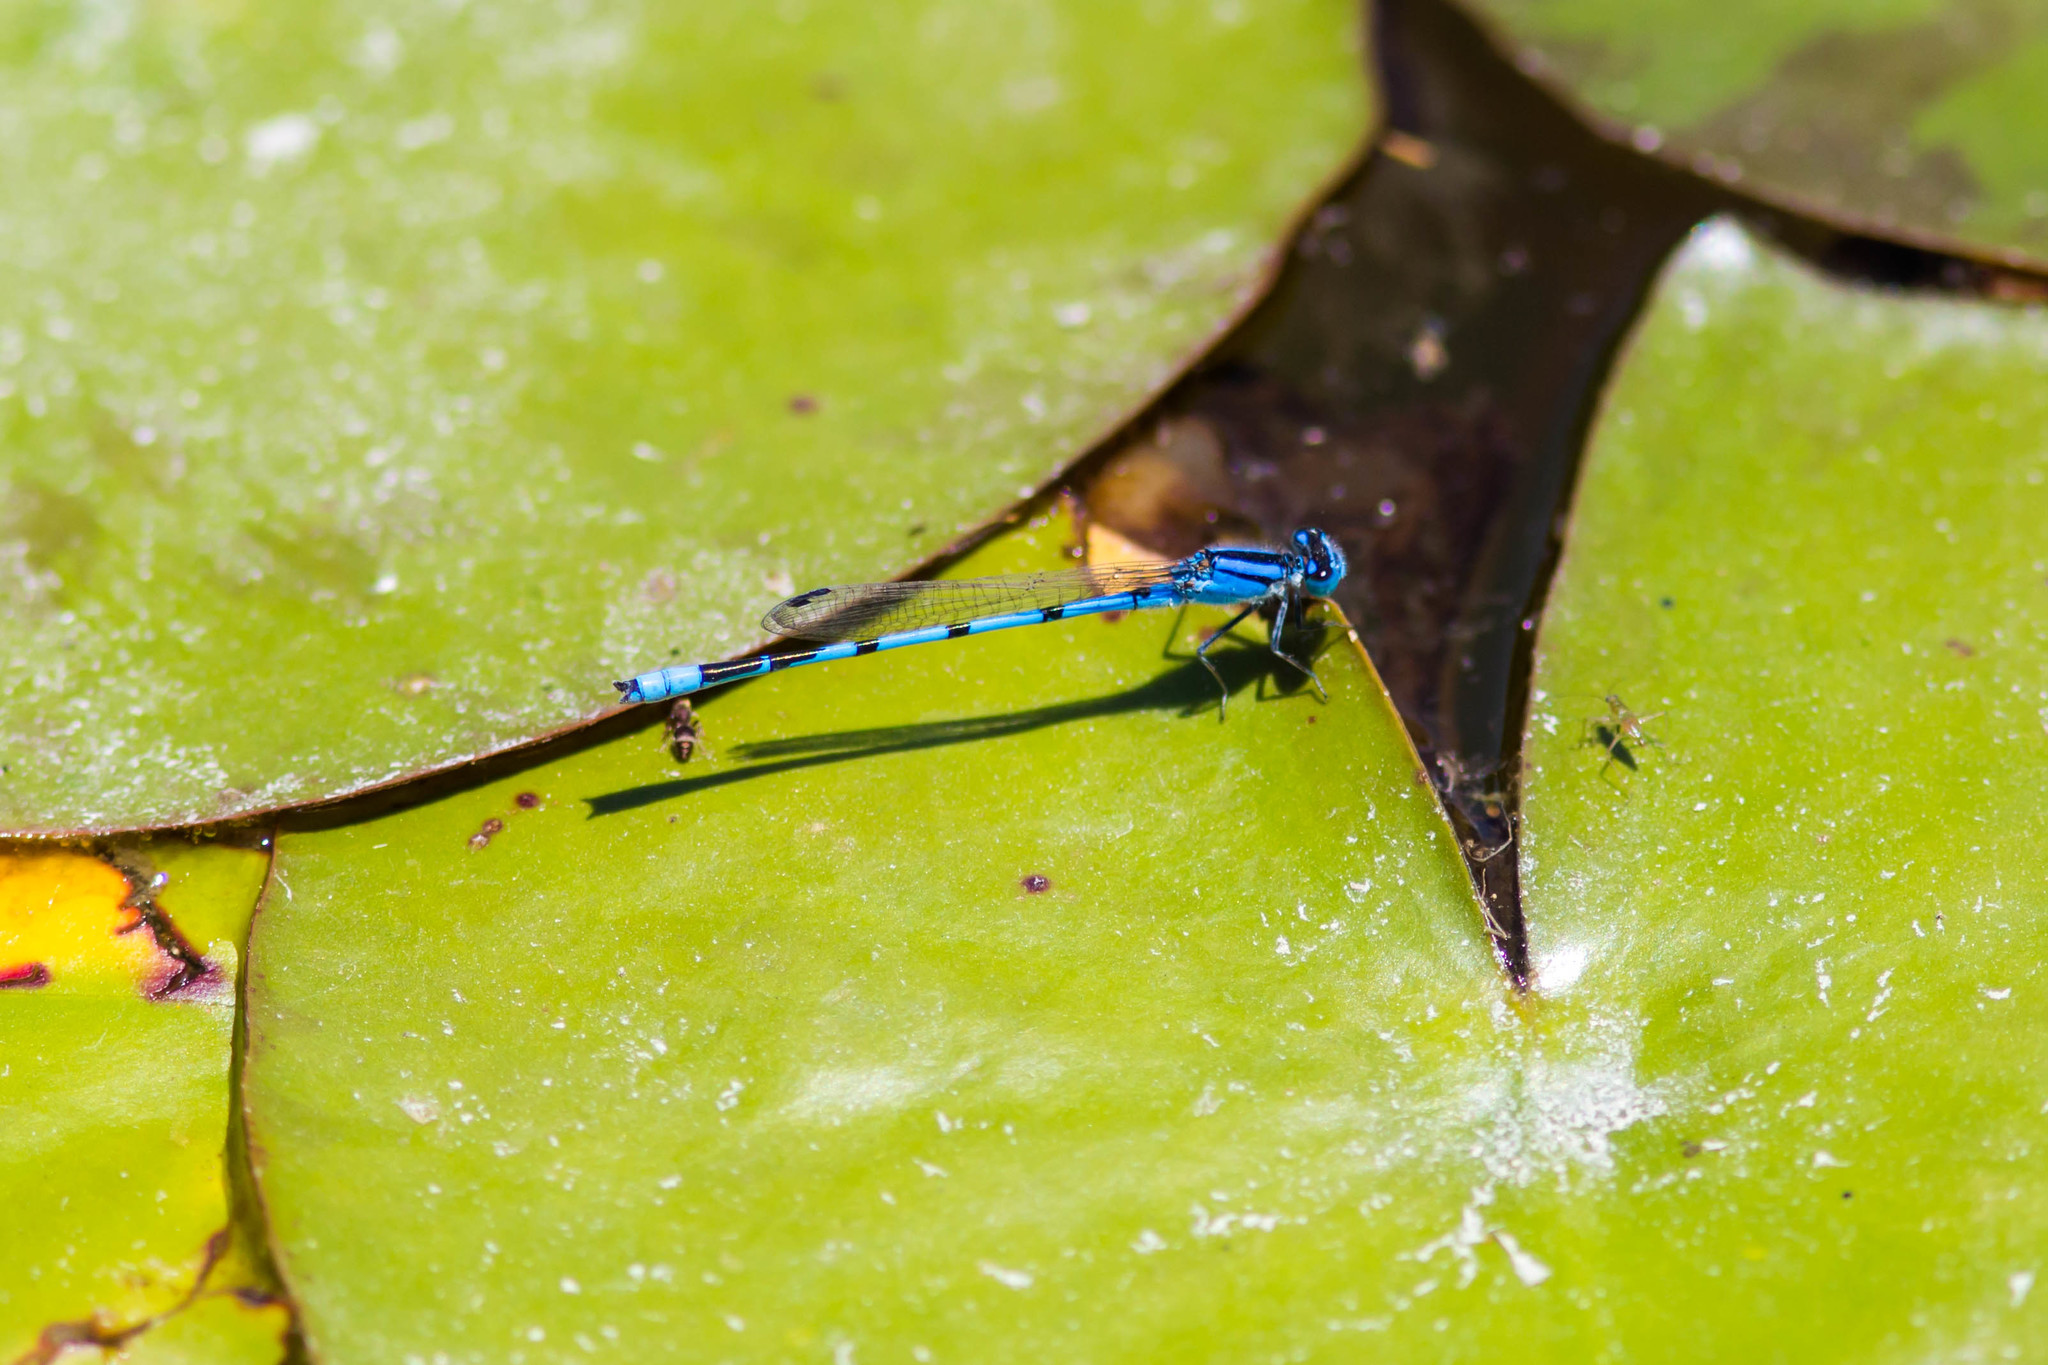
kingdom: Animalia
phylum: Arthropoda
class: Insecta
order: Odonata
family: Coenagrionidae
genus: Enallagma
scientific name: Enallagma civile
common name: Damselfly
